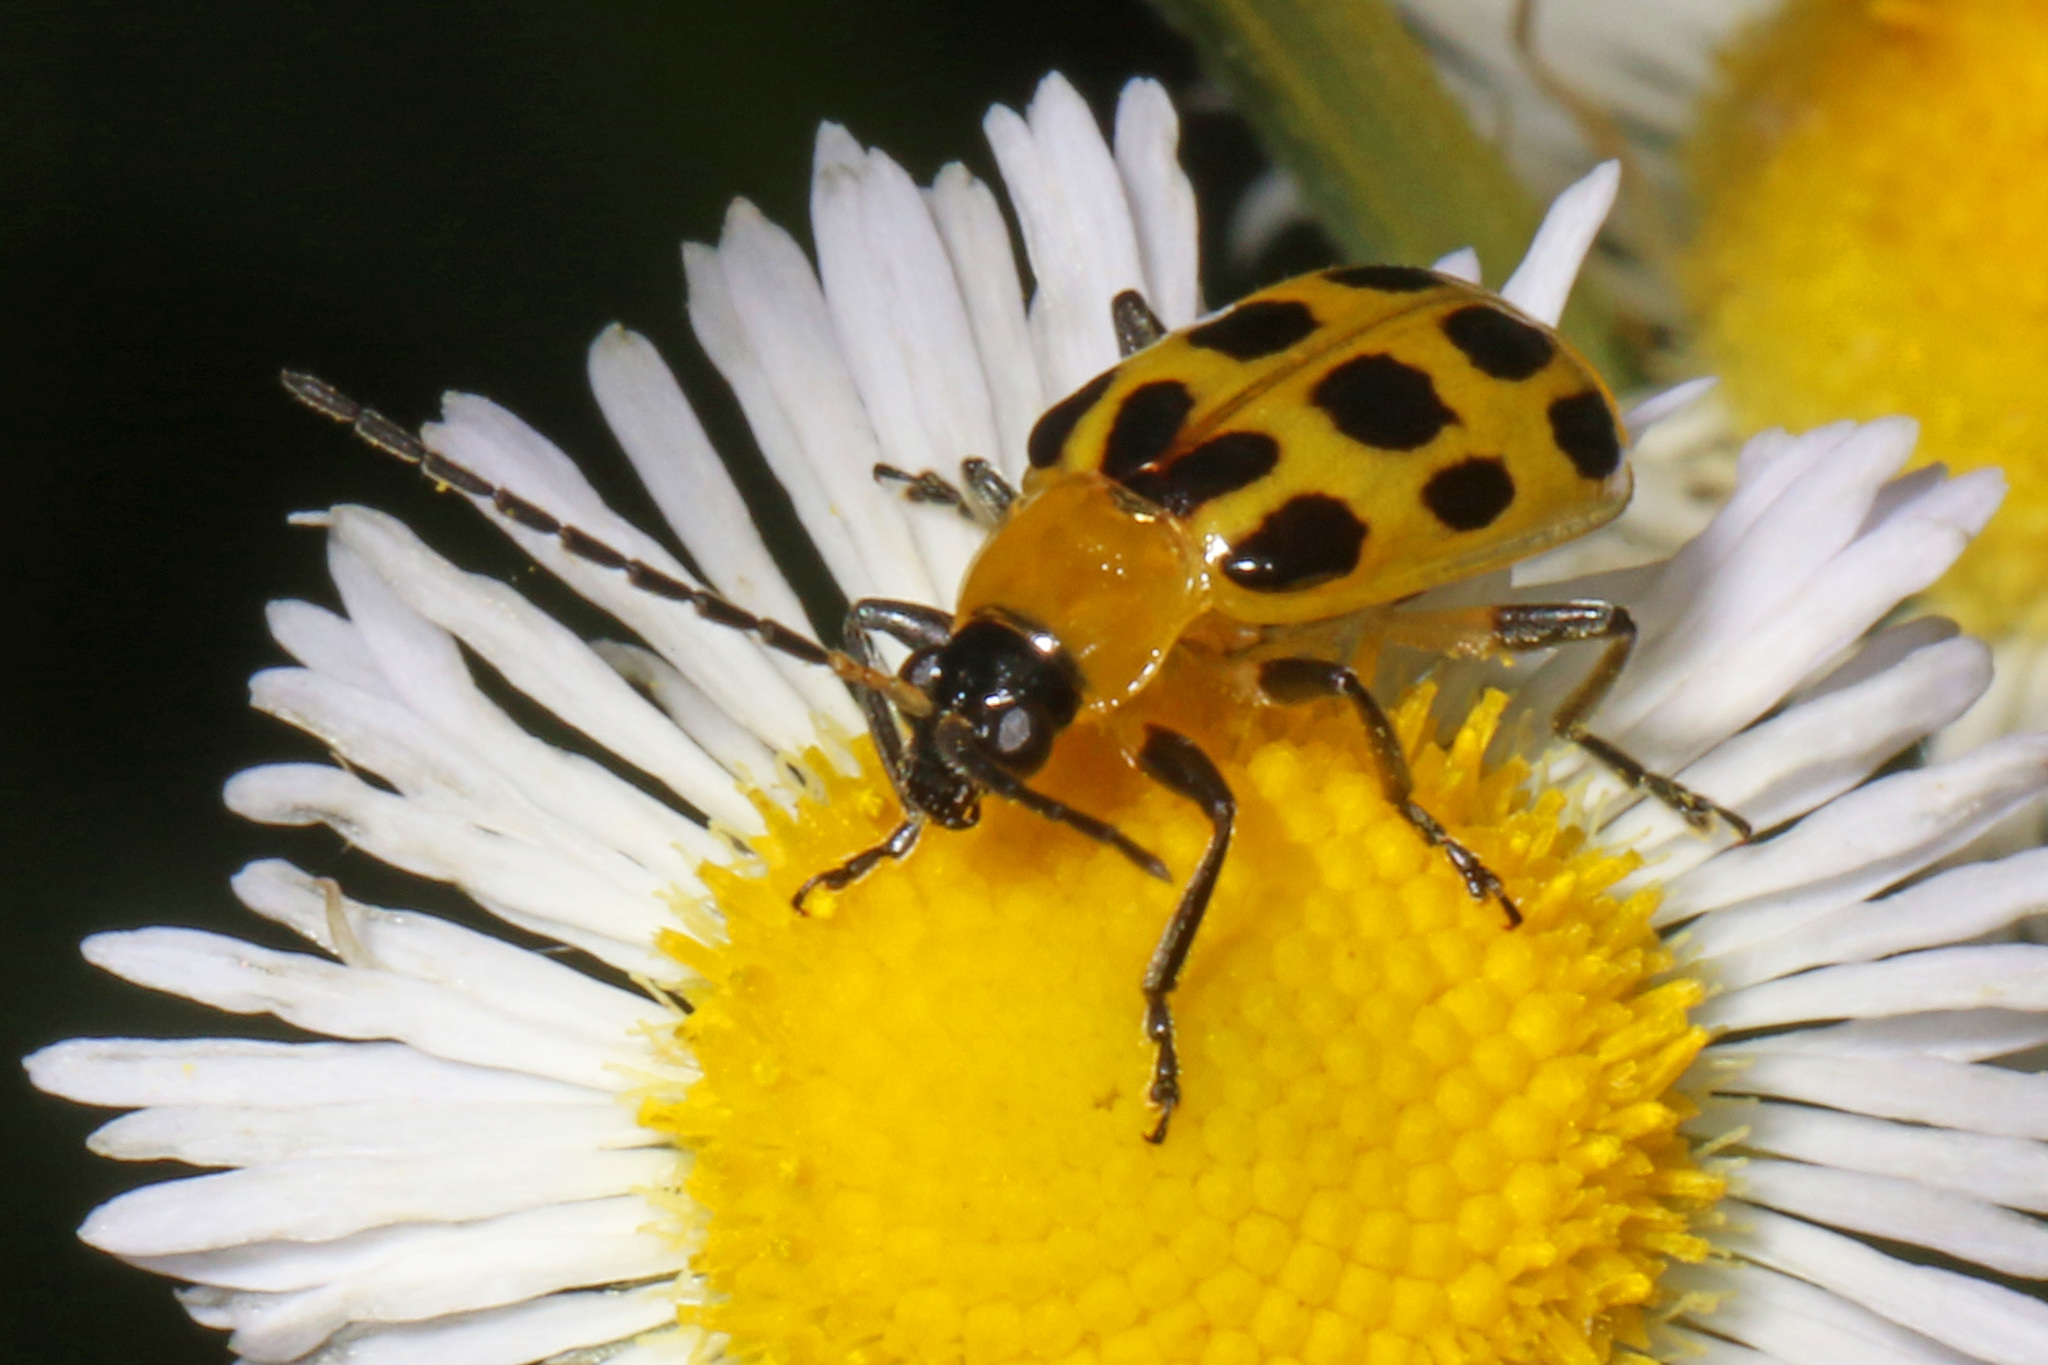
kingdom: Animalia
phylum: Arthropoda
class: Insecta
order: Coleoptera
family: Chrysomelidae
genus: Diabrotica
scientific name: Diabrotica undecimpunctata
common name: Spotted cucumber beetle
